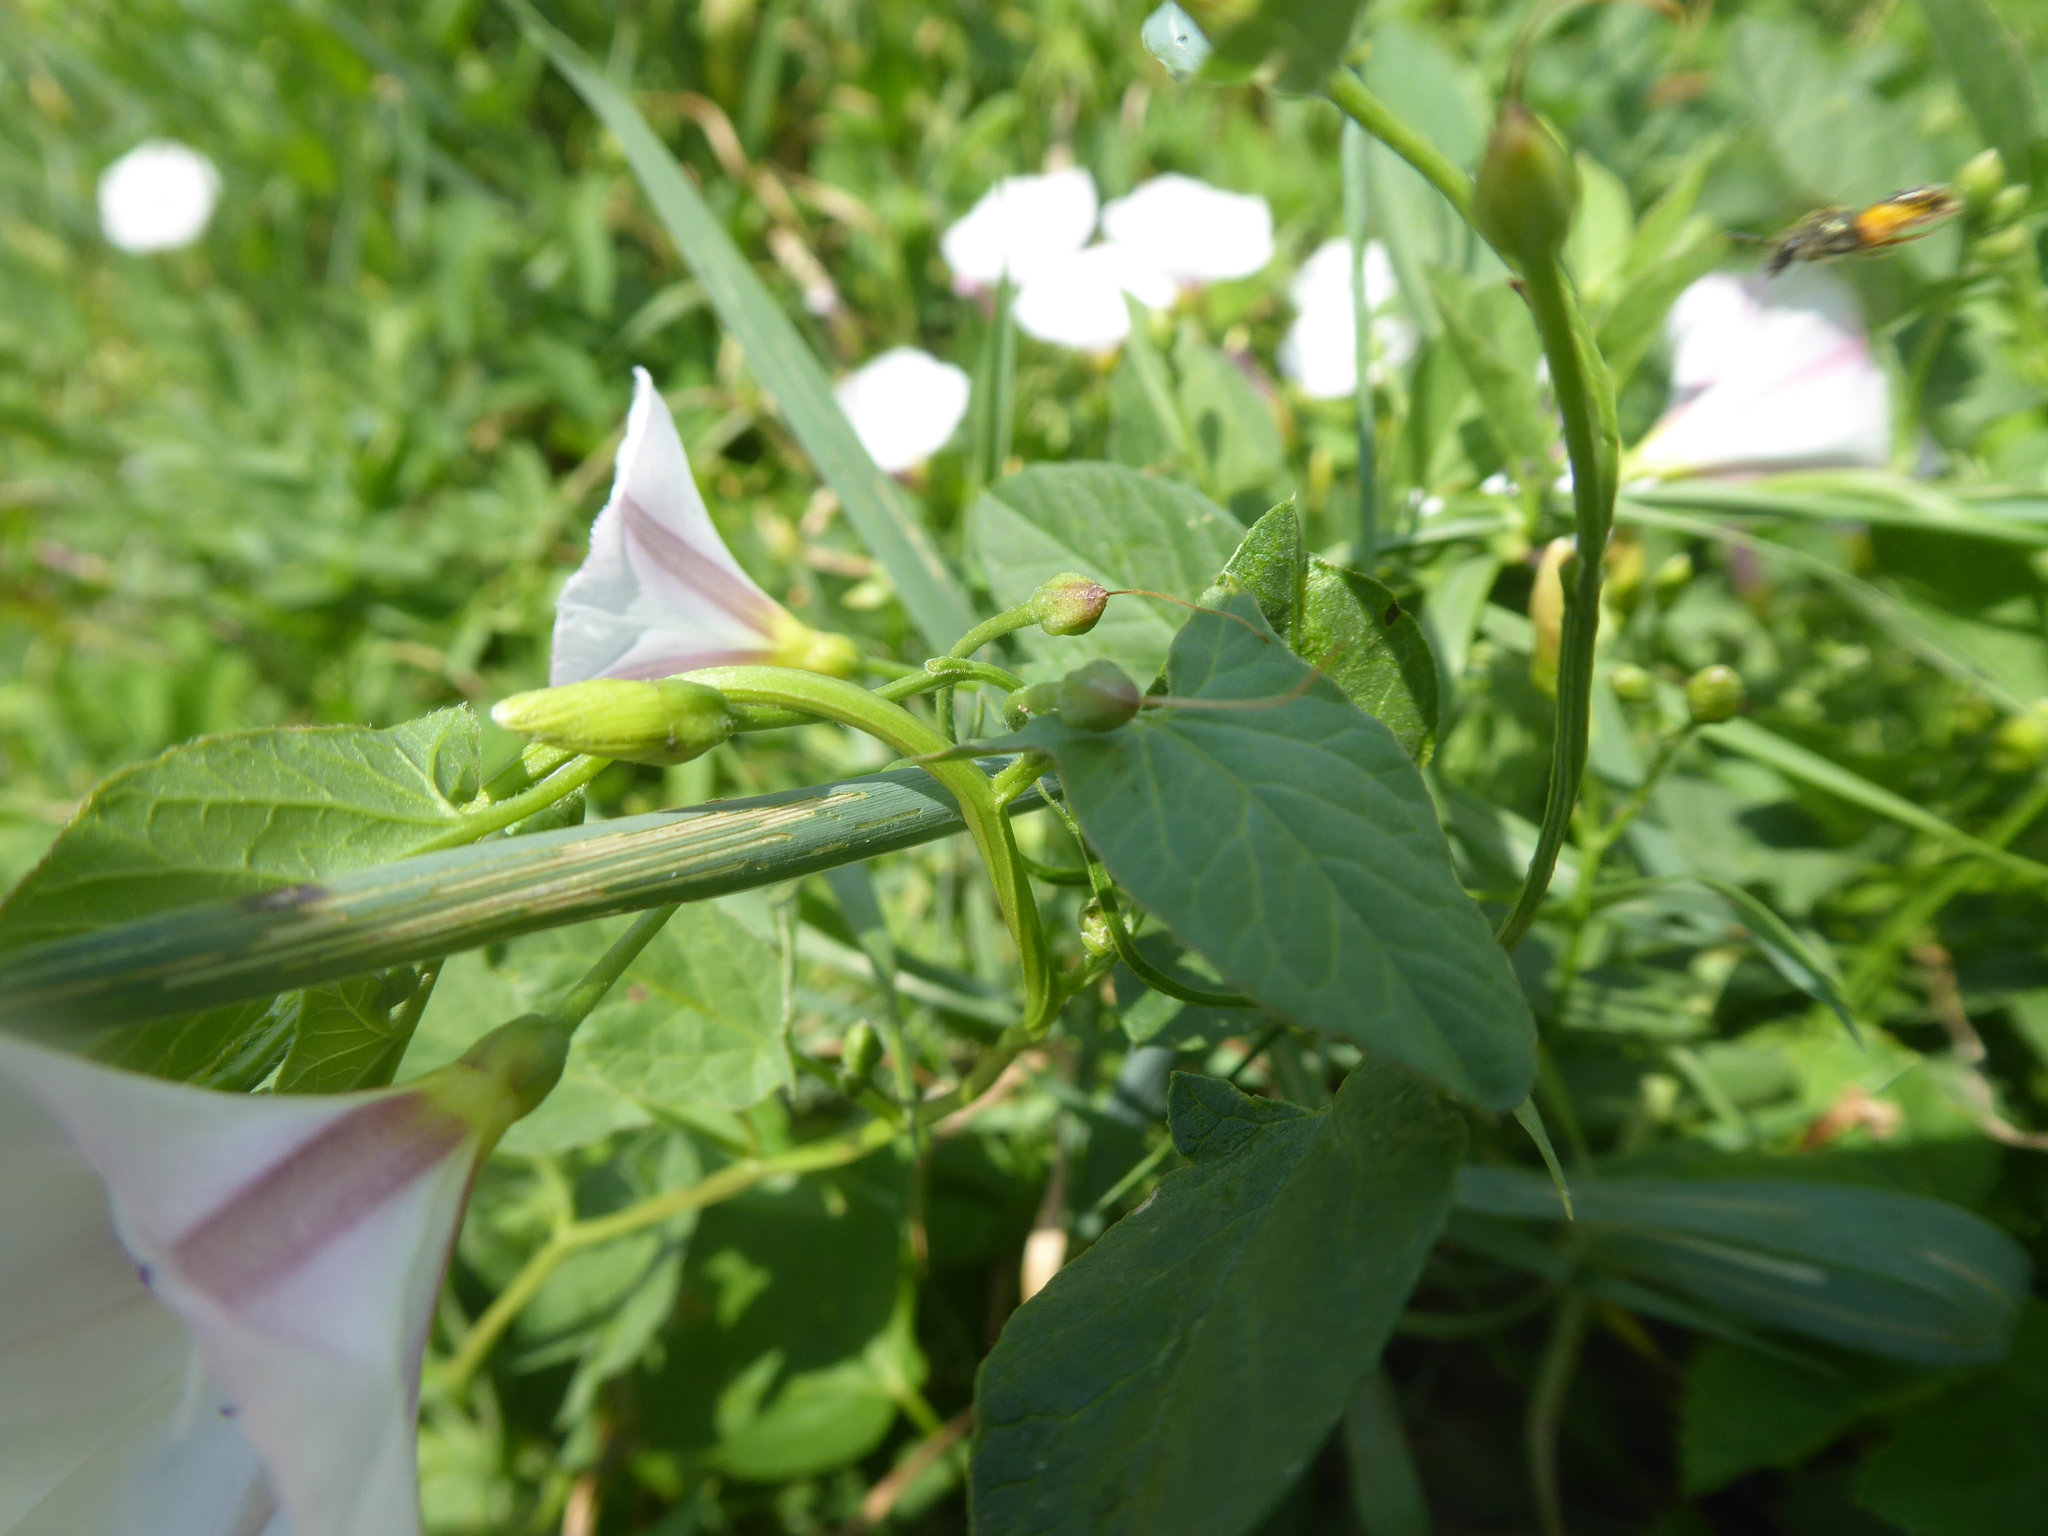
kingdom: Plantae
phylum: Tracheophyta
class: Magnoliopsida
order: Solanales
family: Convolvulaceae
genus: Convolvulus
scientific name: Convolvulus arvensis
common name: Field bindweed
